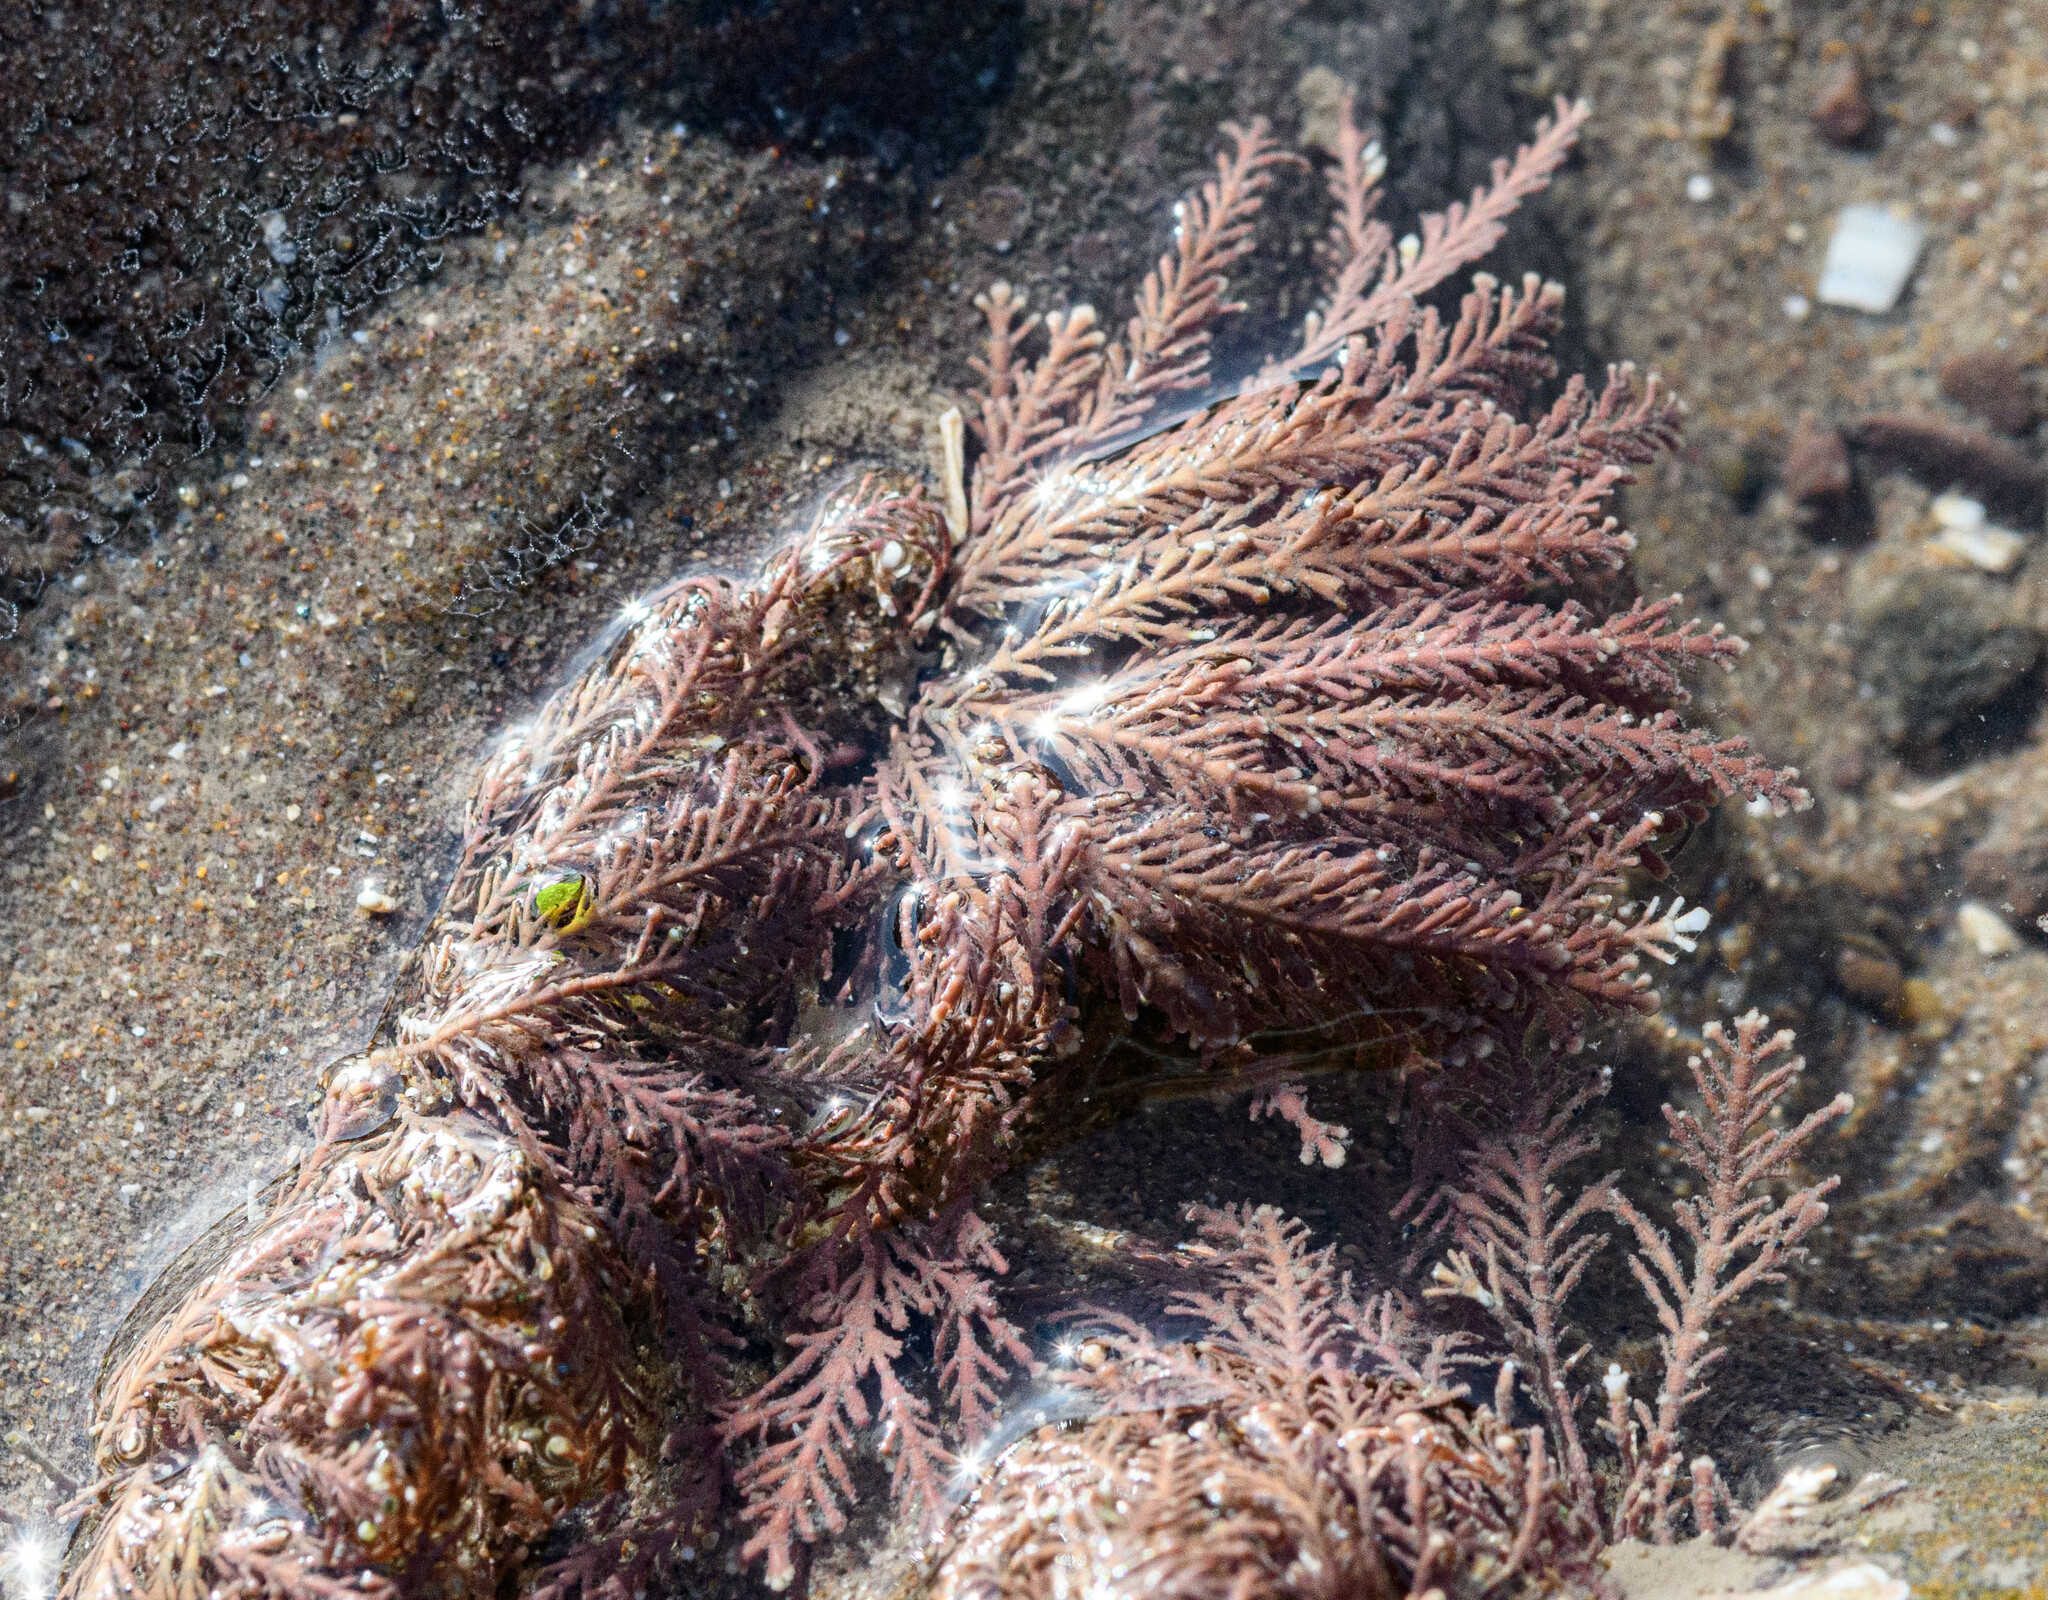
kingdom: Plantae
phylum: Rhodophyta
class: Florideophyceae
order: Corallinales
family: Corallinaceae
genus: Corallina
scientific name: Corallina officinalis
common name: Coral weed
